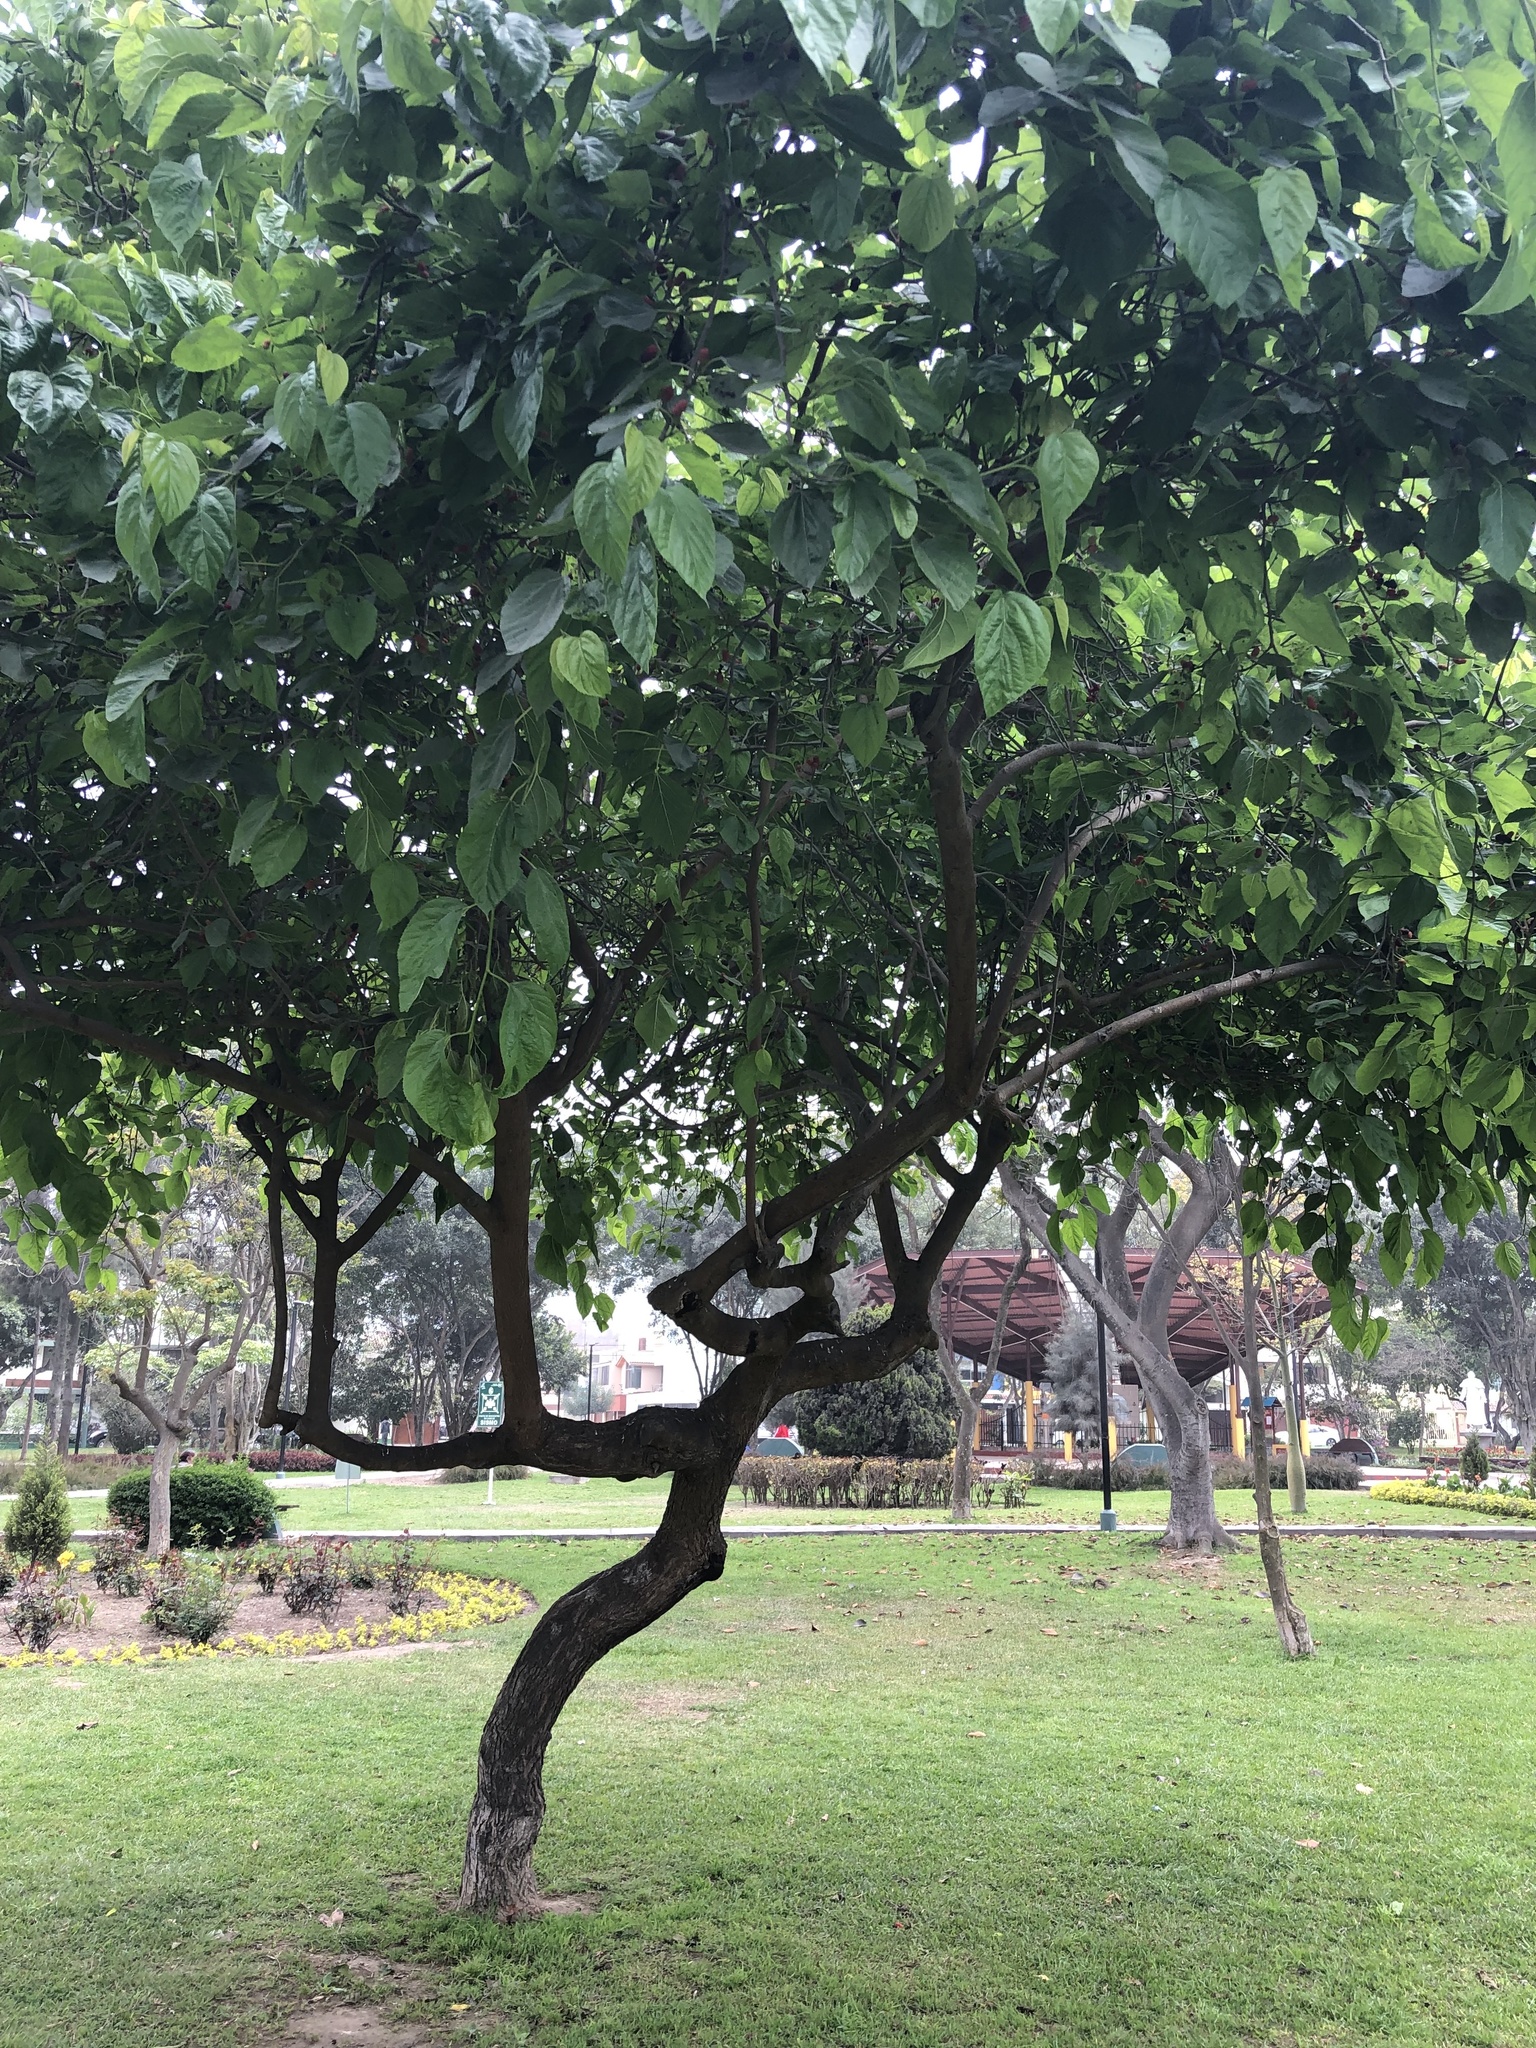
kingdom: Plantae
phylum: Tracheophyta
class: Magnoliopsida
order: Rosales
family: Moraceae
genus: Morus
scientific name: Morus nigra
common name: Black mulberry
